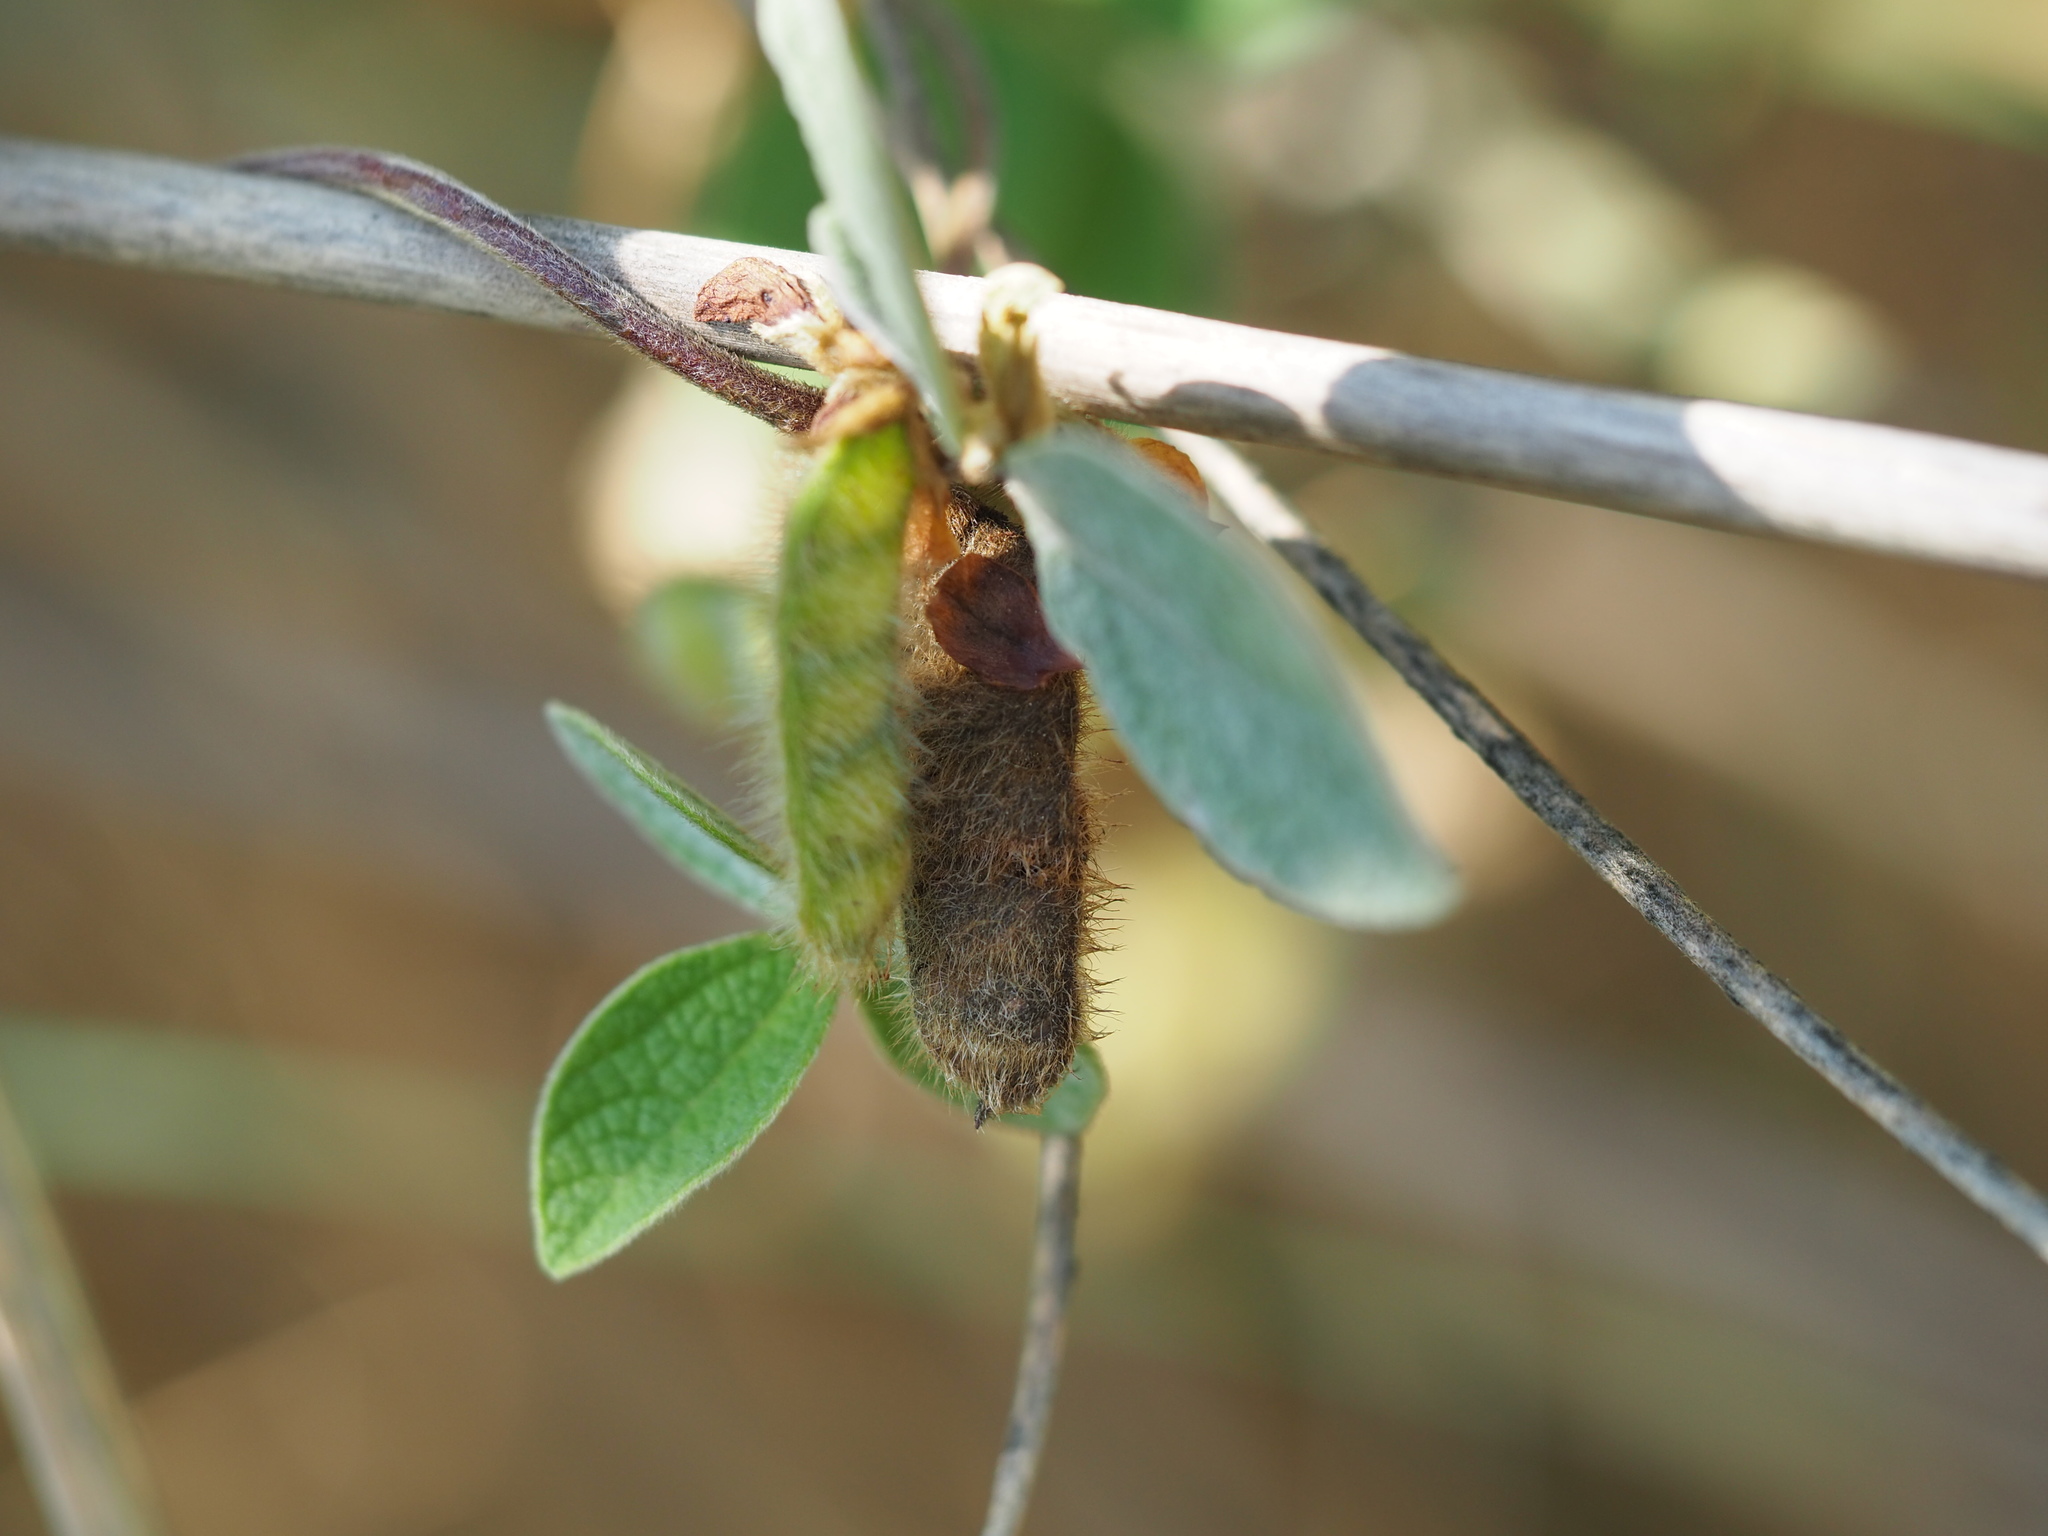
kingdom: Plantae
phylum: Tracheophyta
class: Magnoliopsida
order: Fabales
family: Fabaceae
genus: Cajanus
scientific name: Cajanus scarabaeoides
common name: Showy pigeonpea
